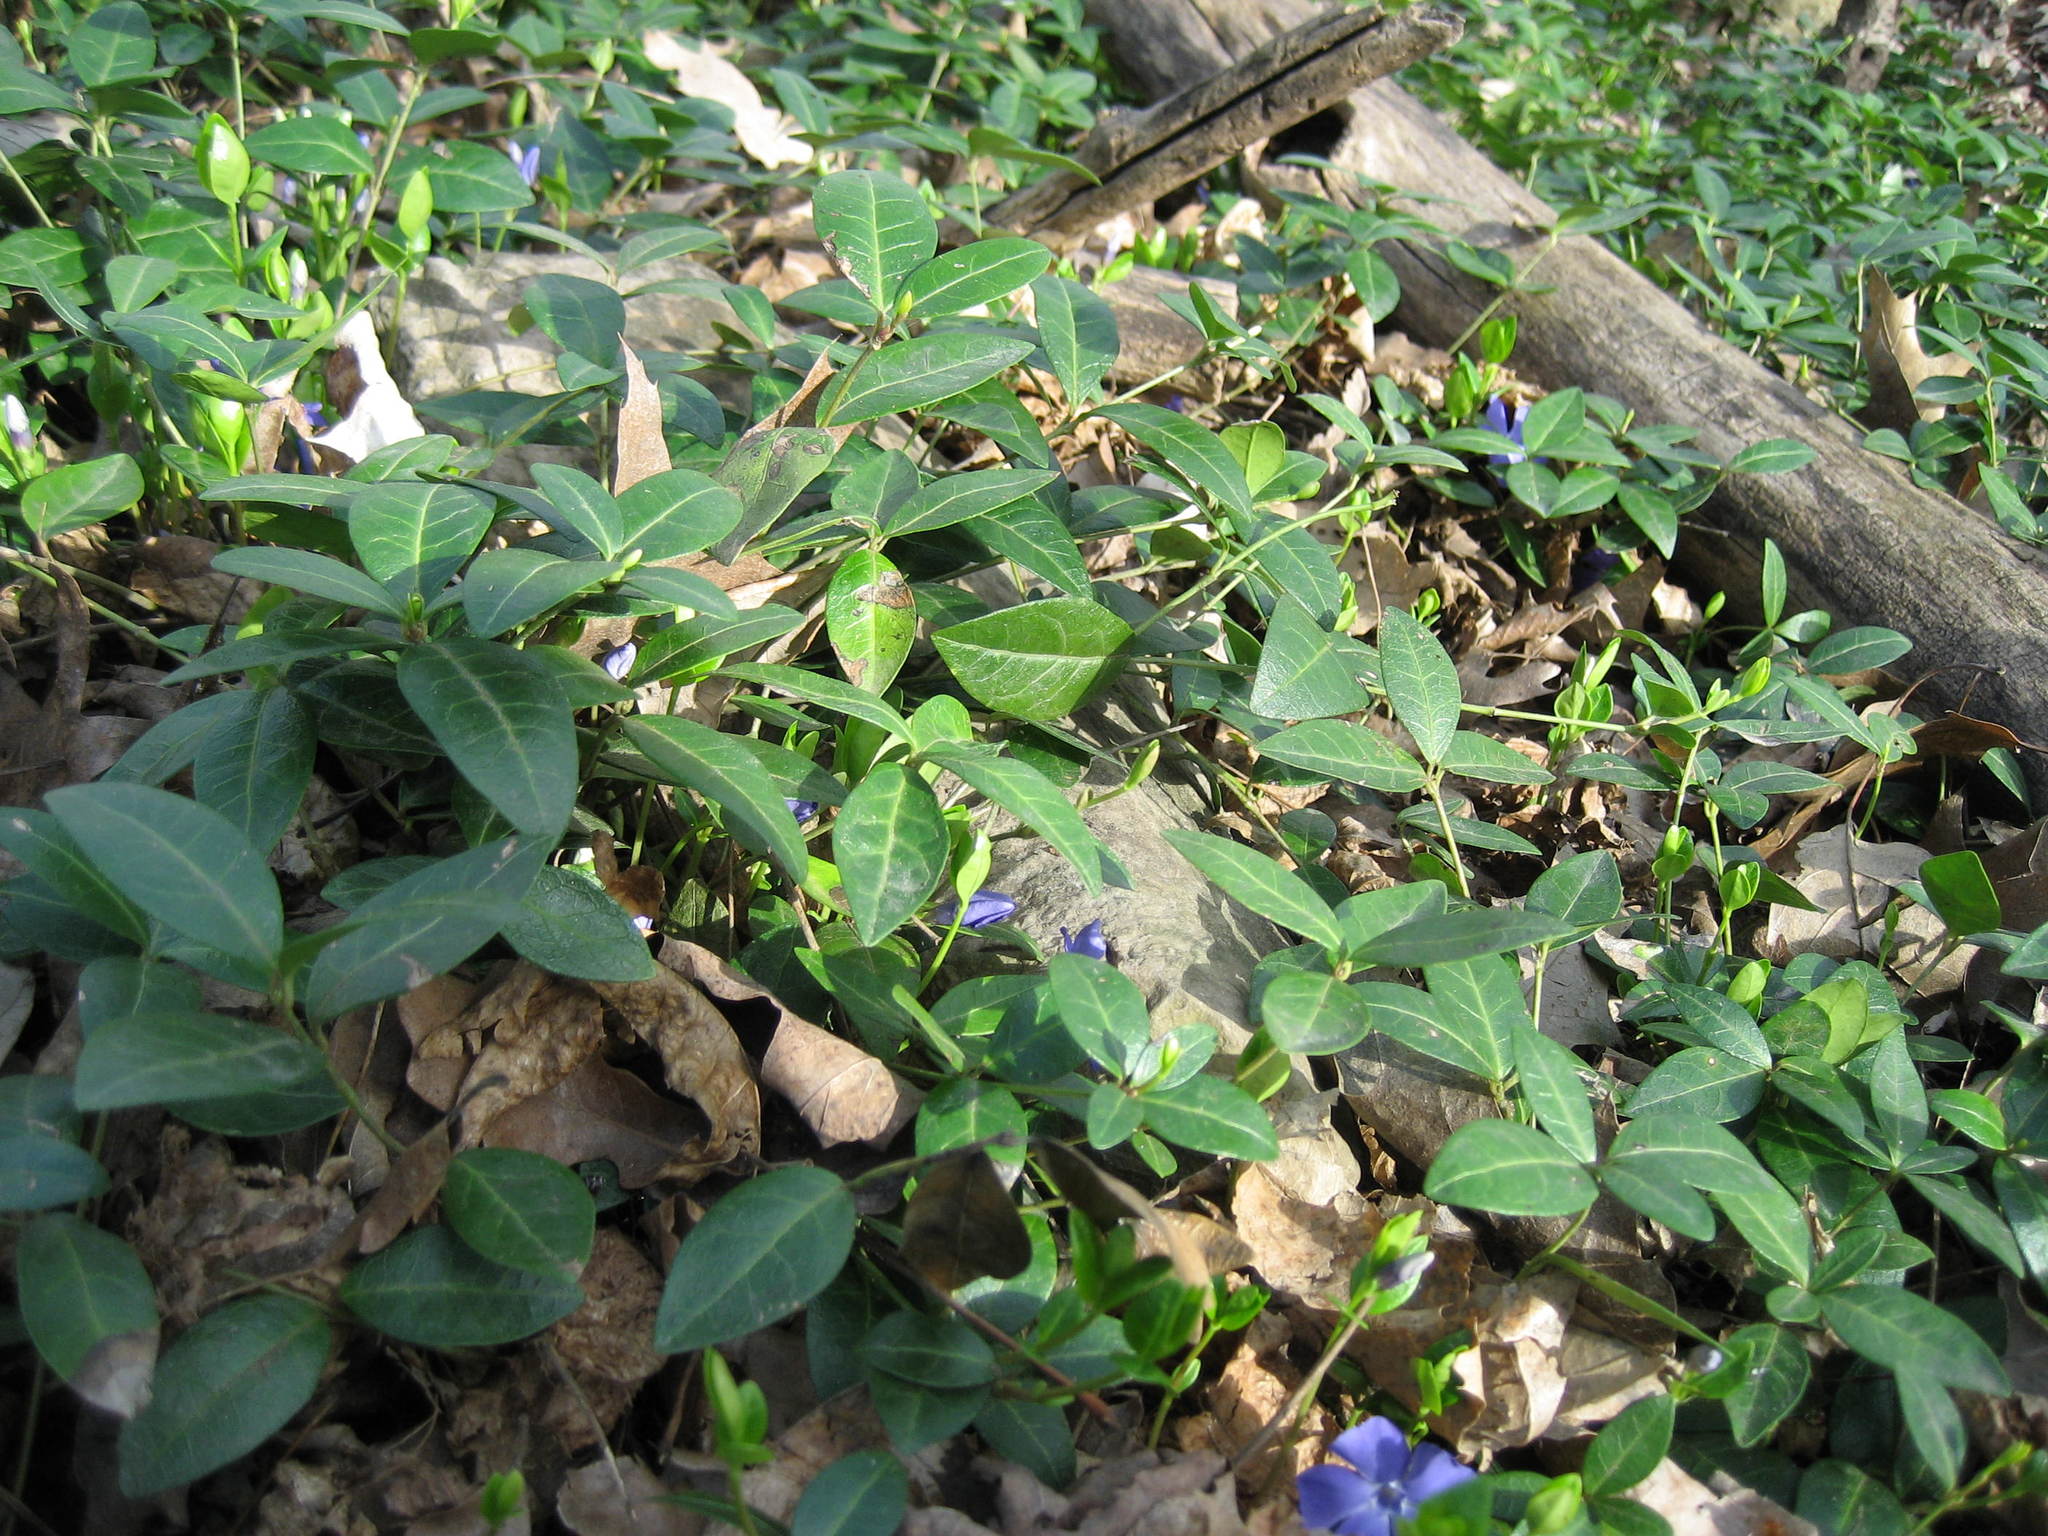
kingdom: Plantae
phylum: Tracheophyta
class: Magnoliopsida
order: Gentianales
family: Apocynaceae
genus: Vinca
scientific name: Vinca minor
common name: Lesser periwinkle
